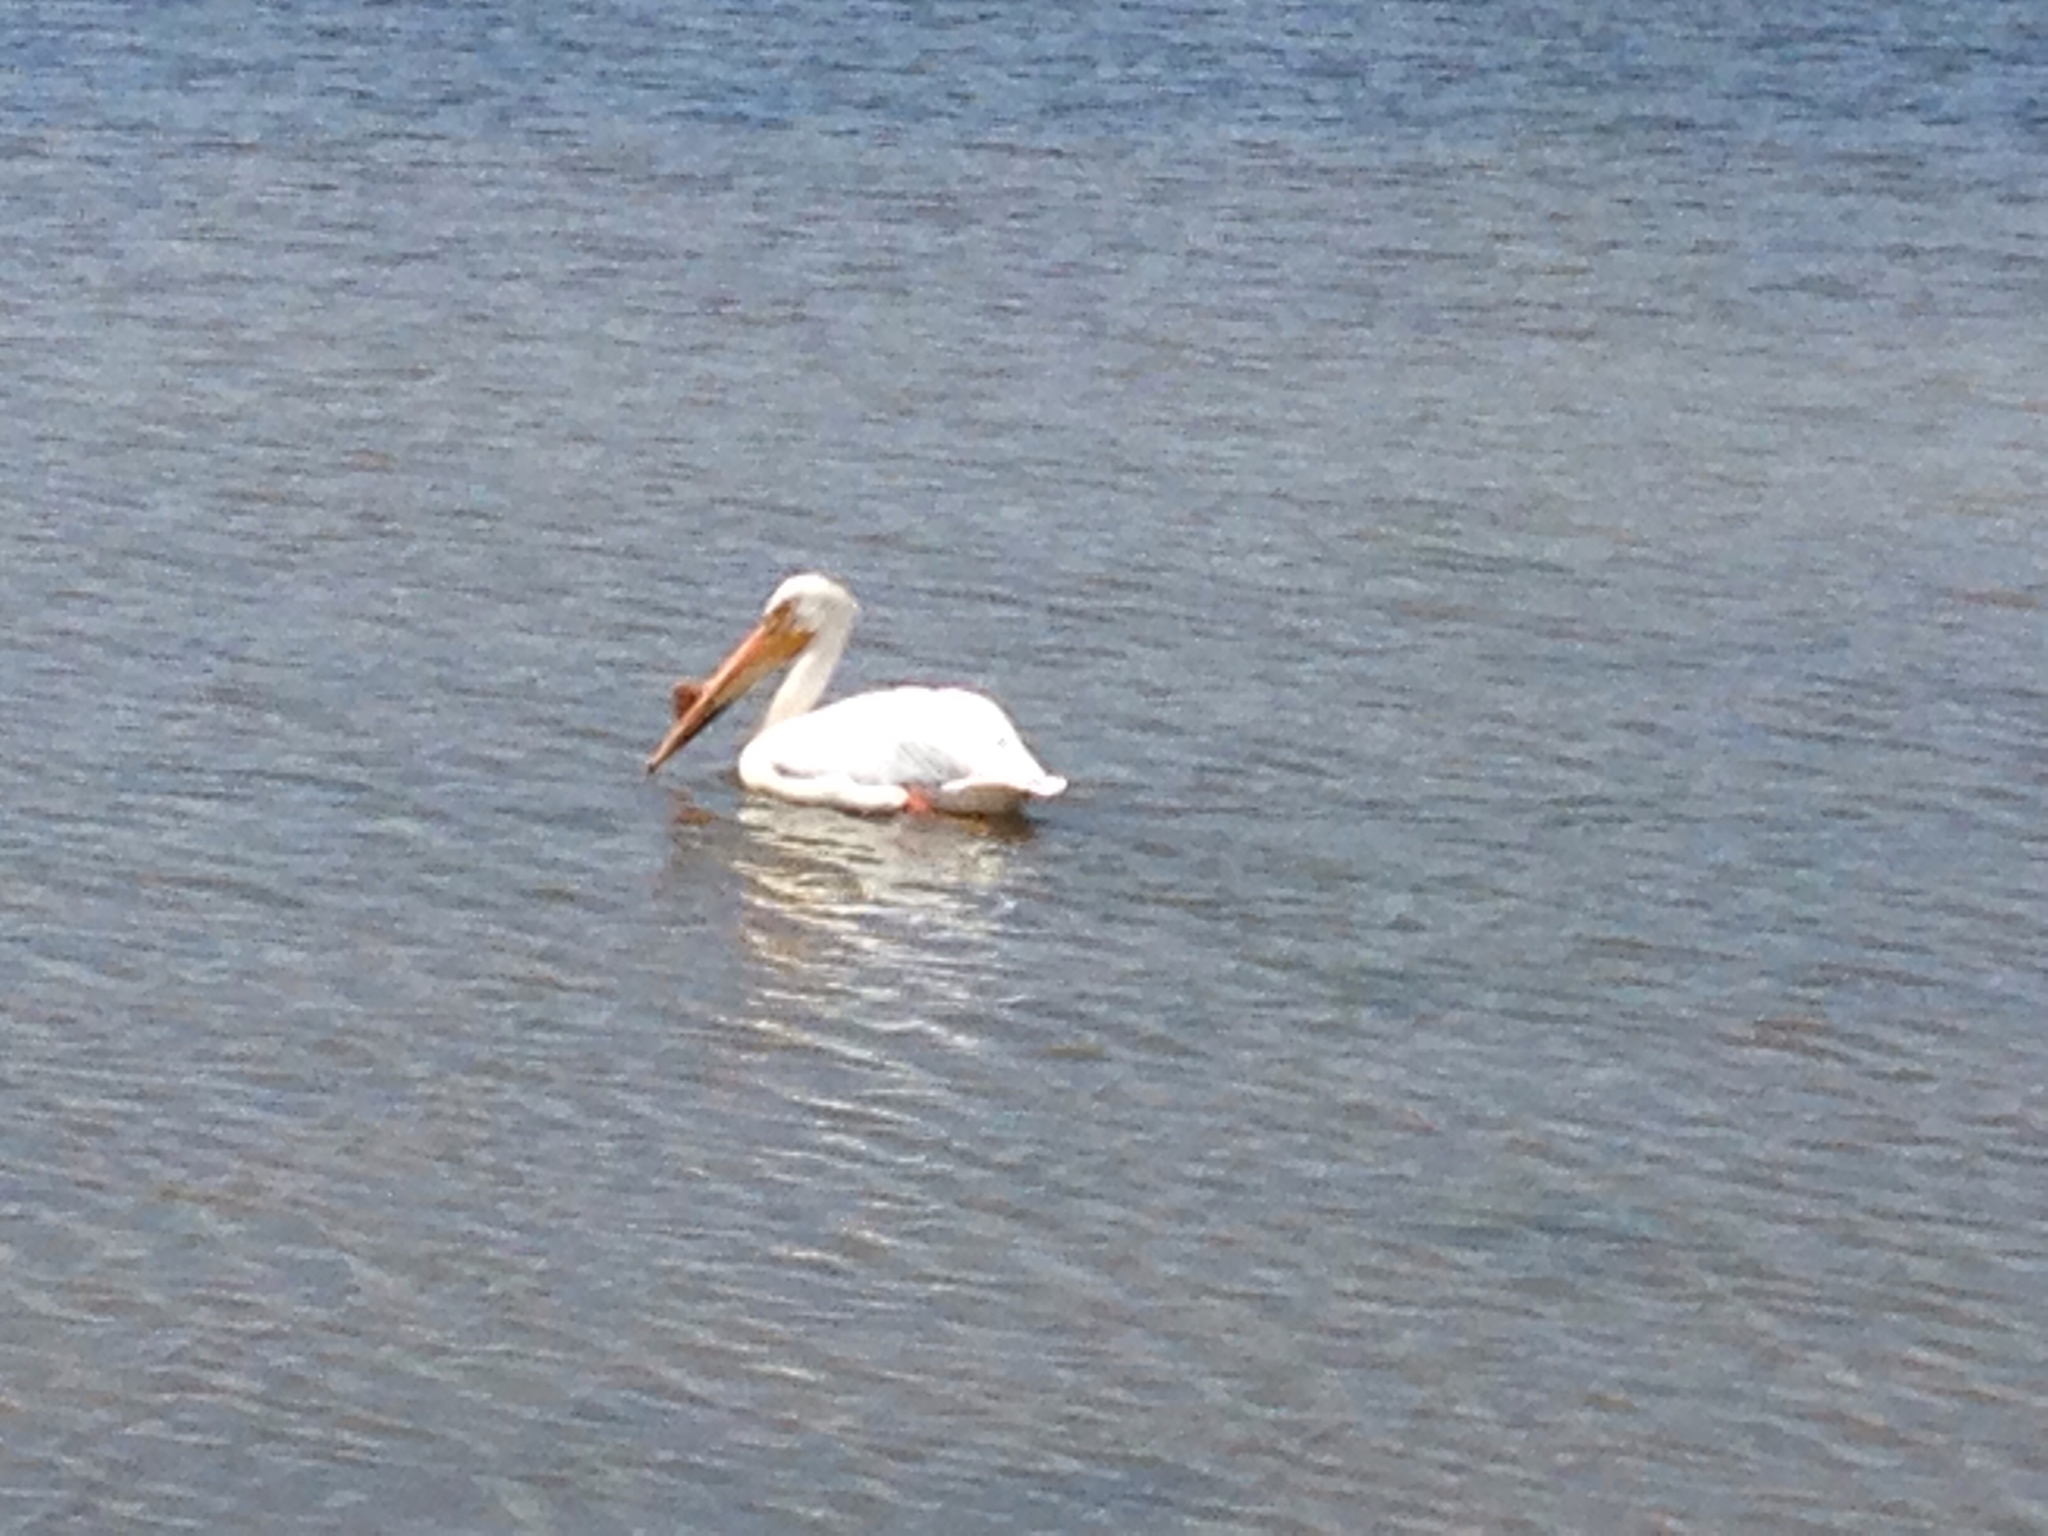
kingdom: Animalia
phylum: Chordata
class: Aves
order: Pelecaniformes
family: Pelecanidae
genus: Pelecanus
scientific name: Pelecanus erythrorhynchos
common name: American white pelican
